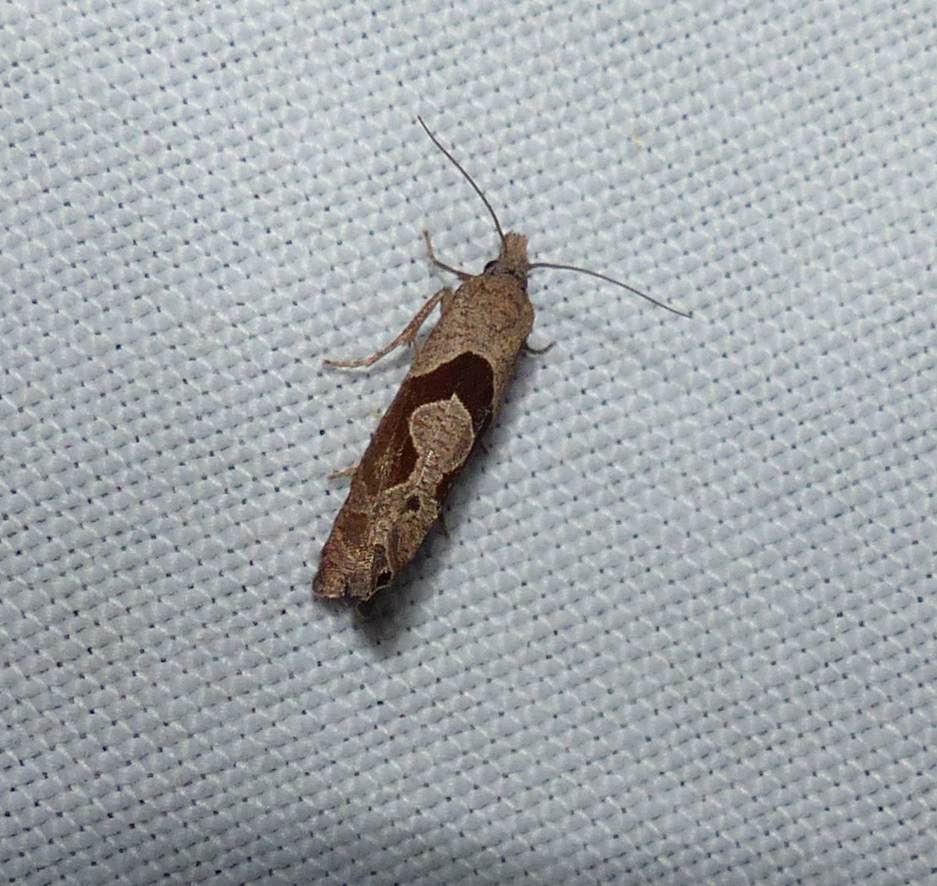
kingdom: Animalia
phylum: Arthropoda
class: Insecta
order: Lepidoptera
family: Tortricidae
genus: Pelochrista
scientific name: Pelochrista similiana
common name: Similar eucosma
